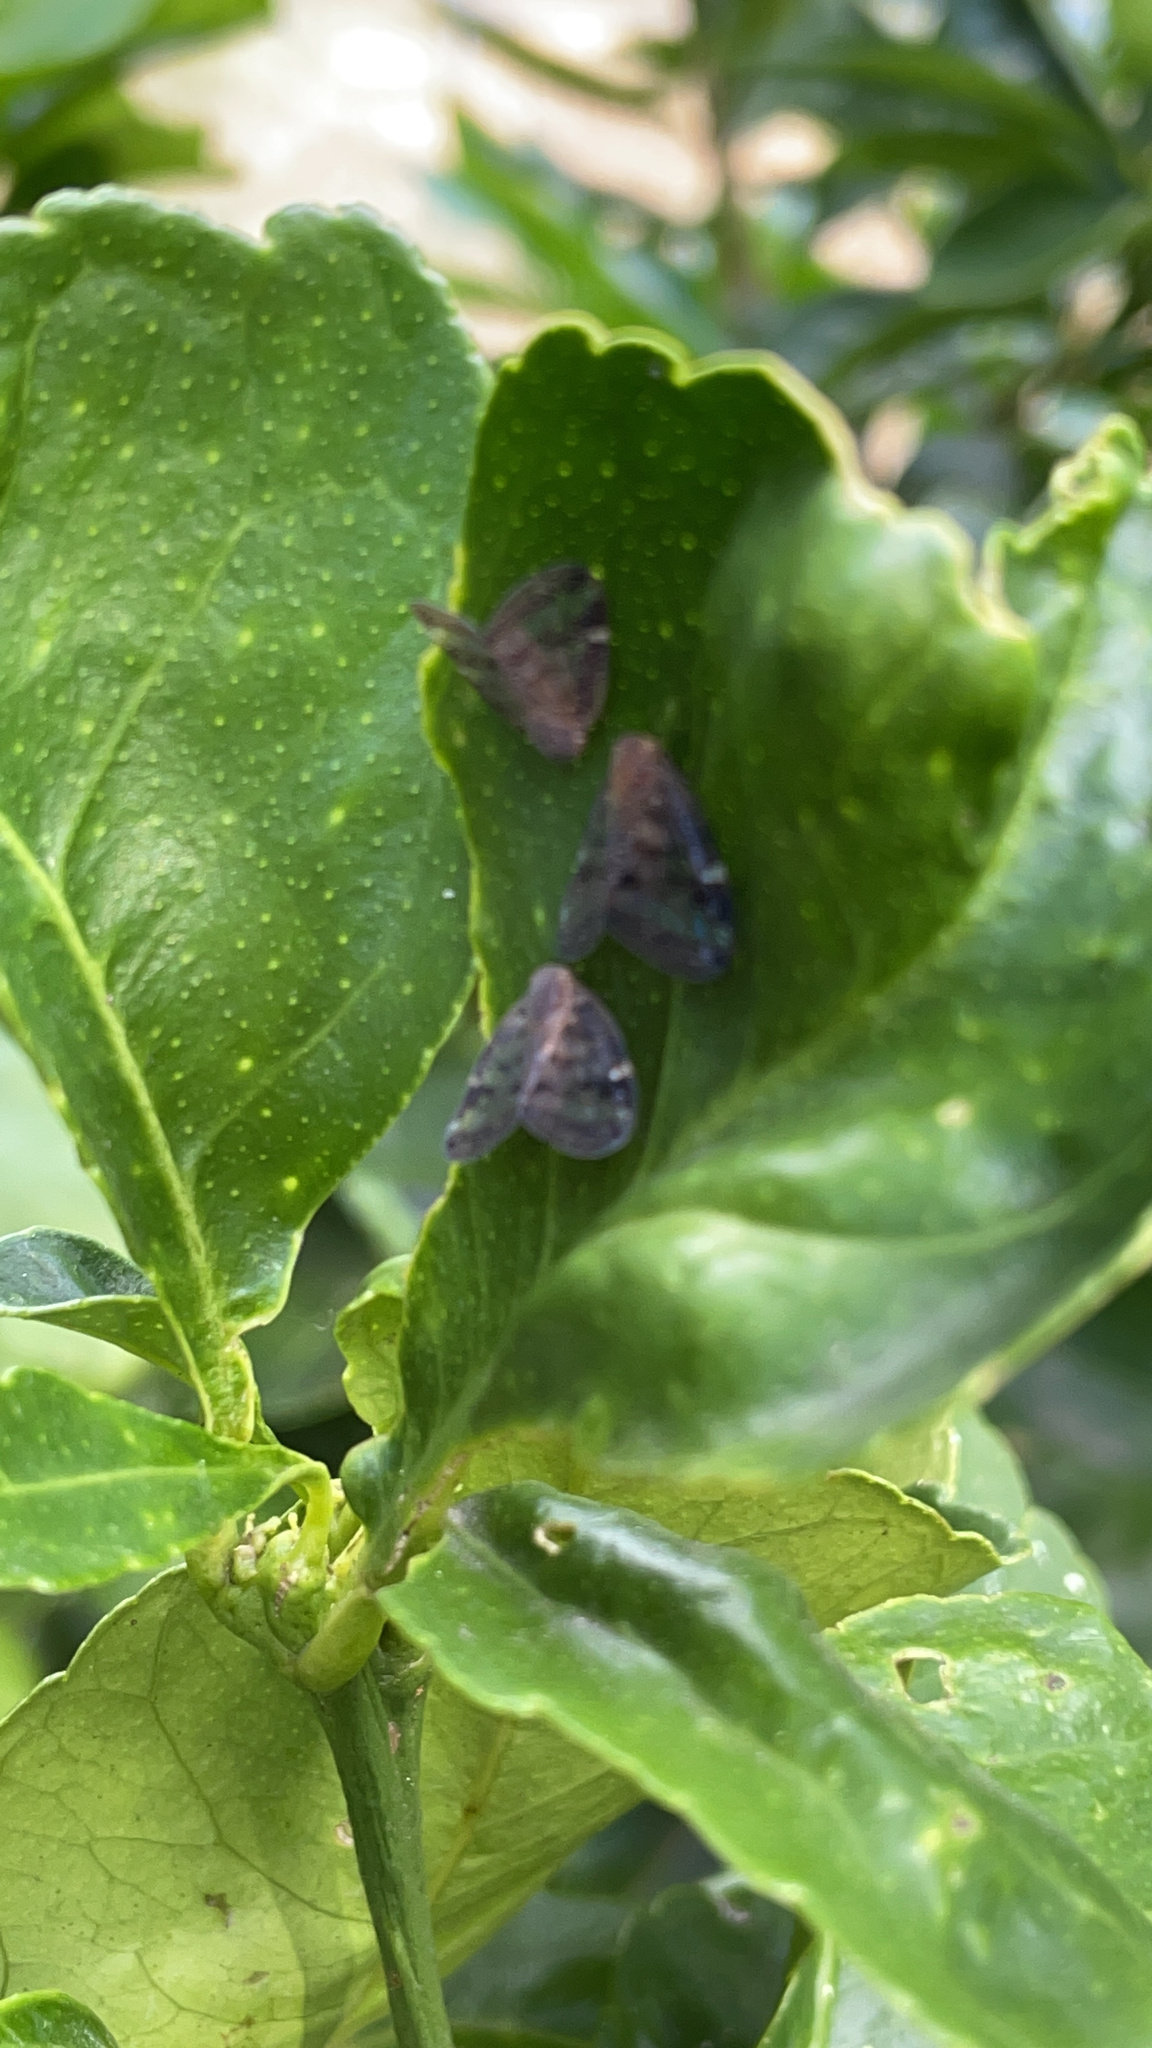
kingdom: Animalia
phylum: Arthropoda
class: Insecta
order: Hemiptera
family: Ricaniidae
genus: Scolypopa
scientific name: Scolypopa australis
